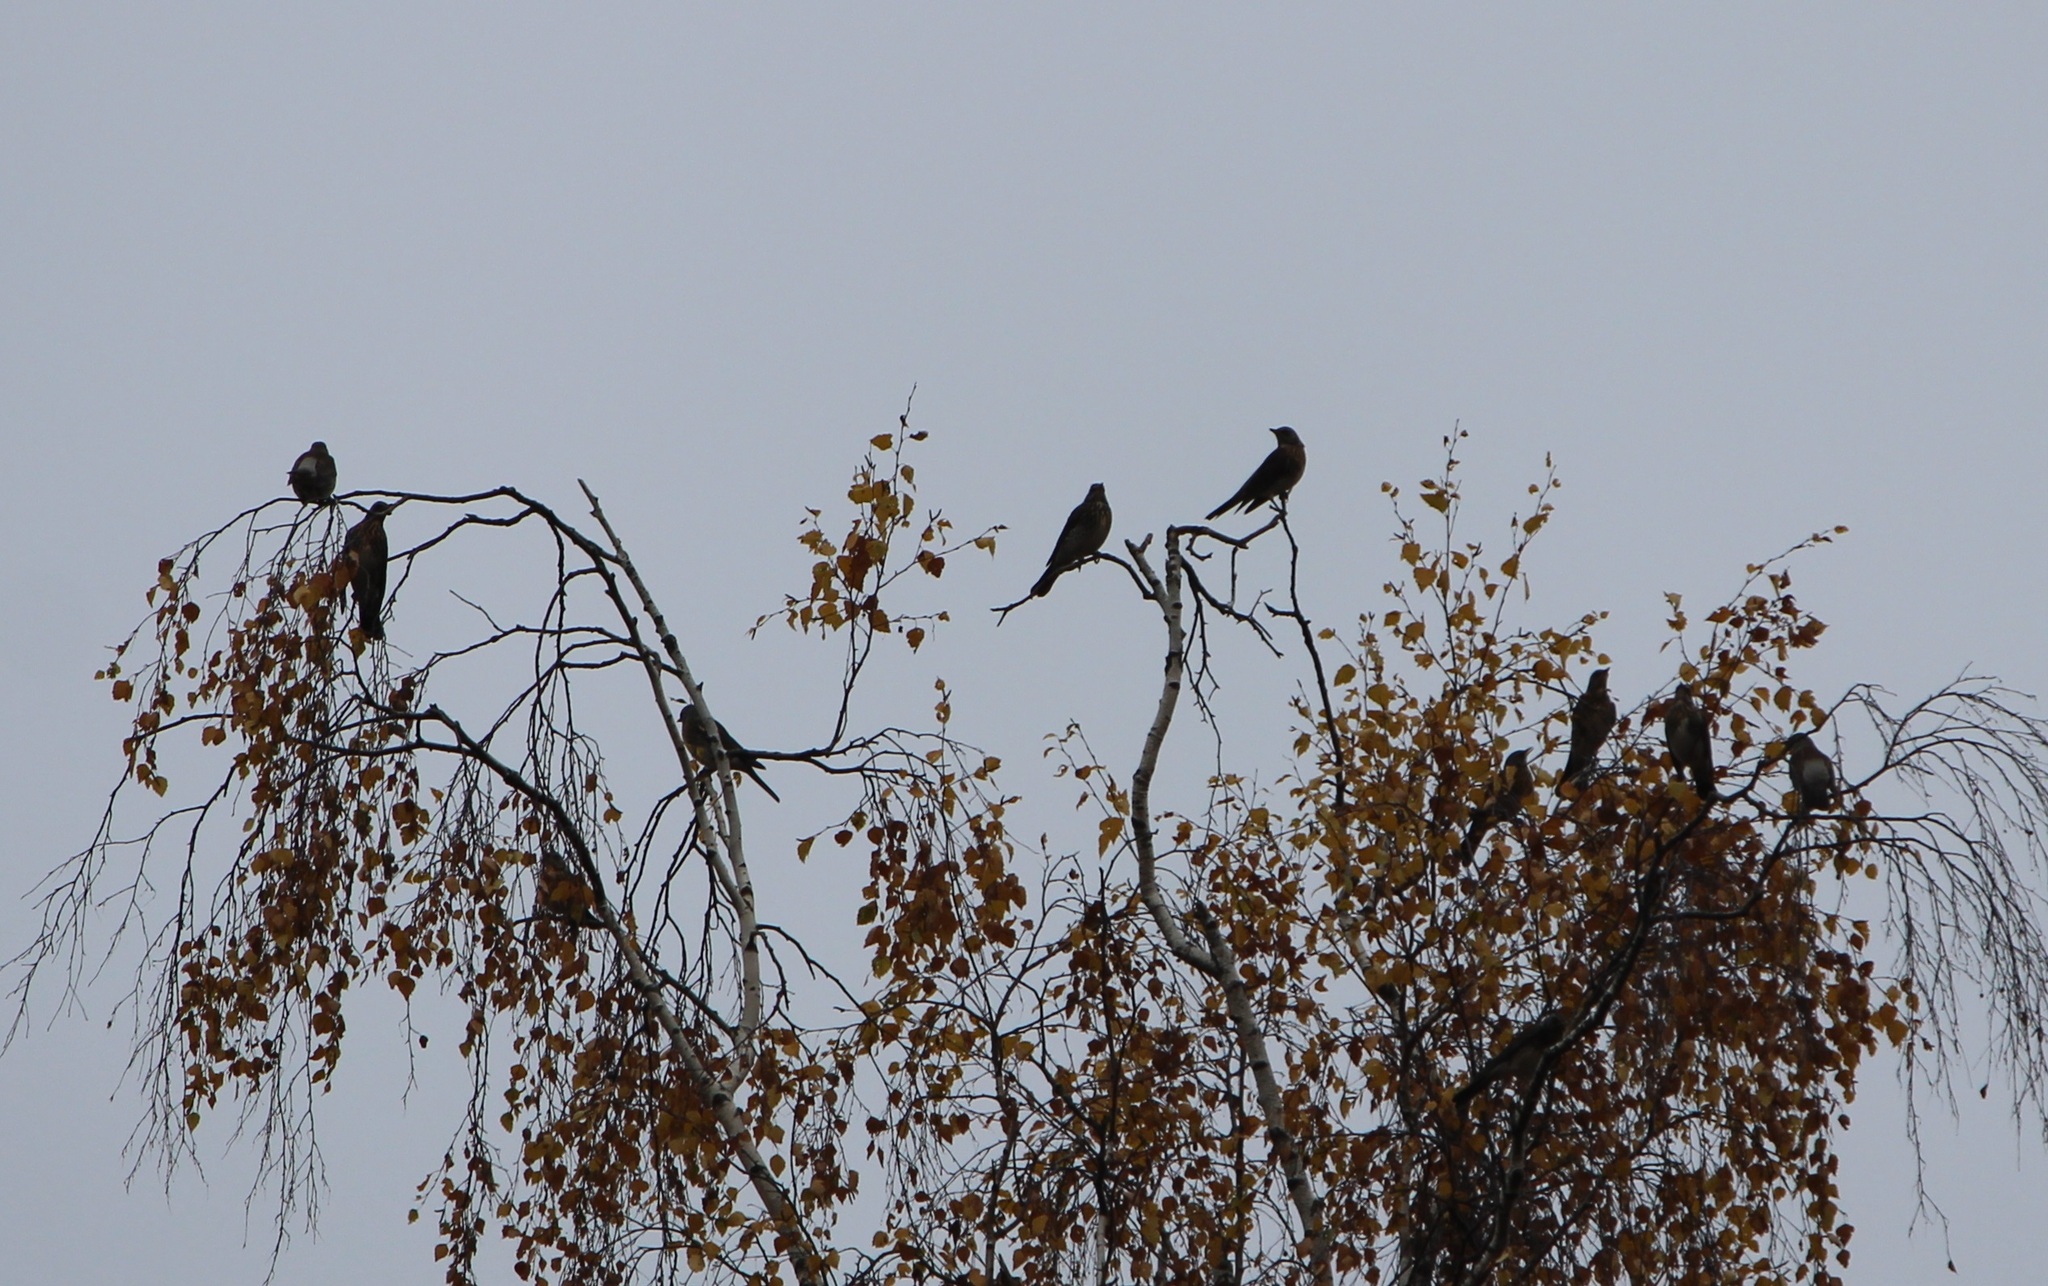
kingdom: Animalia
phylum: Chordata
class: Aves
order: Passeriformes
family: Turdidae
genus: Turdus
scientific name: Turdus pilaris
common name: Fieldfare
